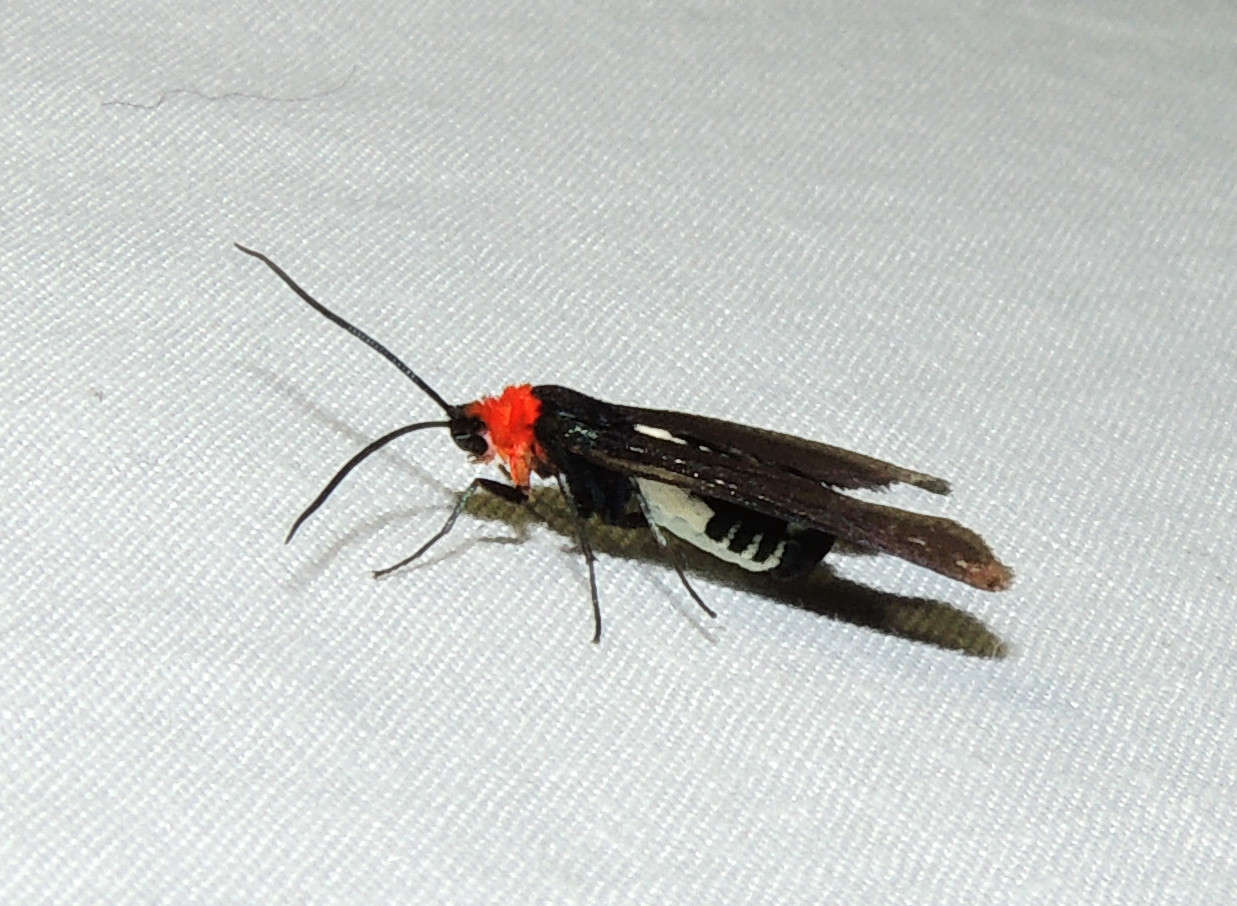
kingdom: Animalia
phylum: Arthropoda
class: Insecta
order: Lepidoptera
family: Zygaenidae
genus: Hestiochora
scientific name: Hestiochora furcata
